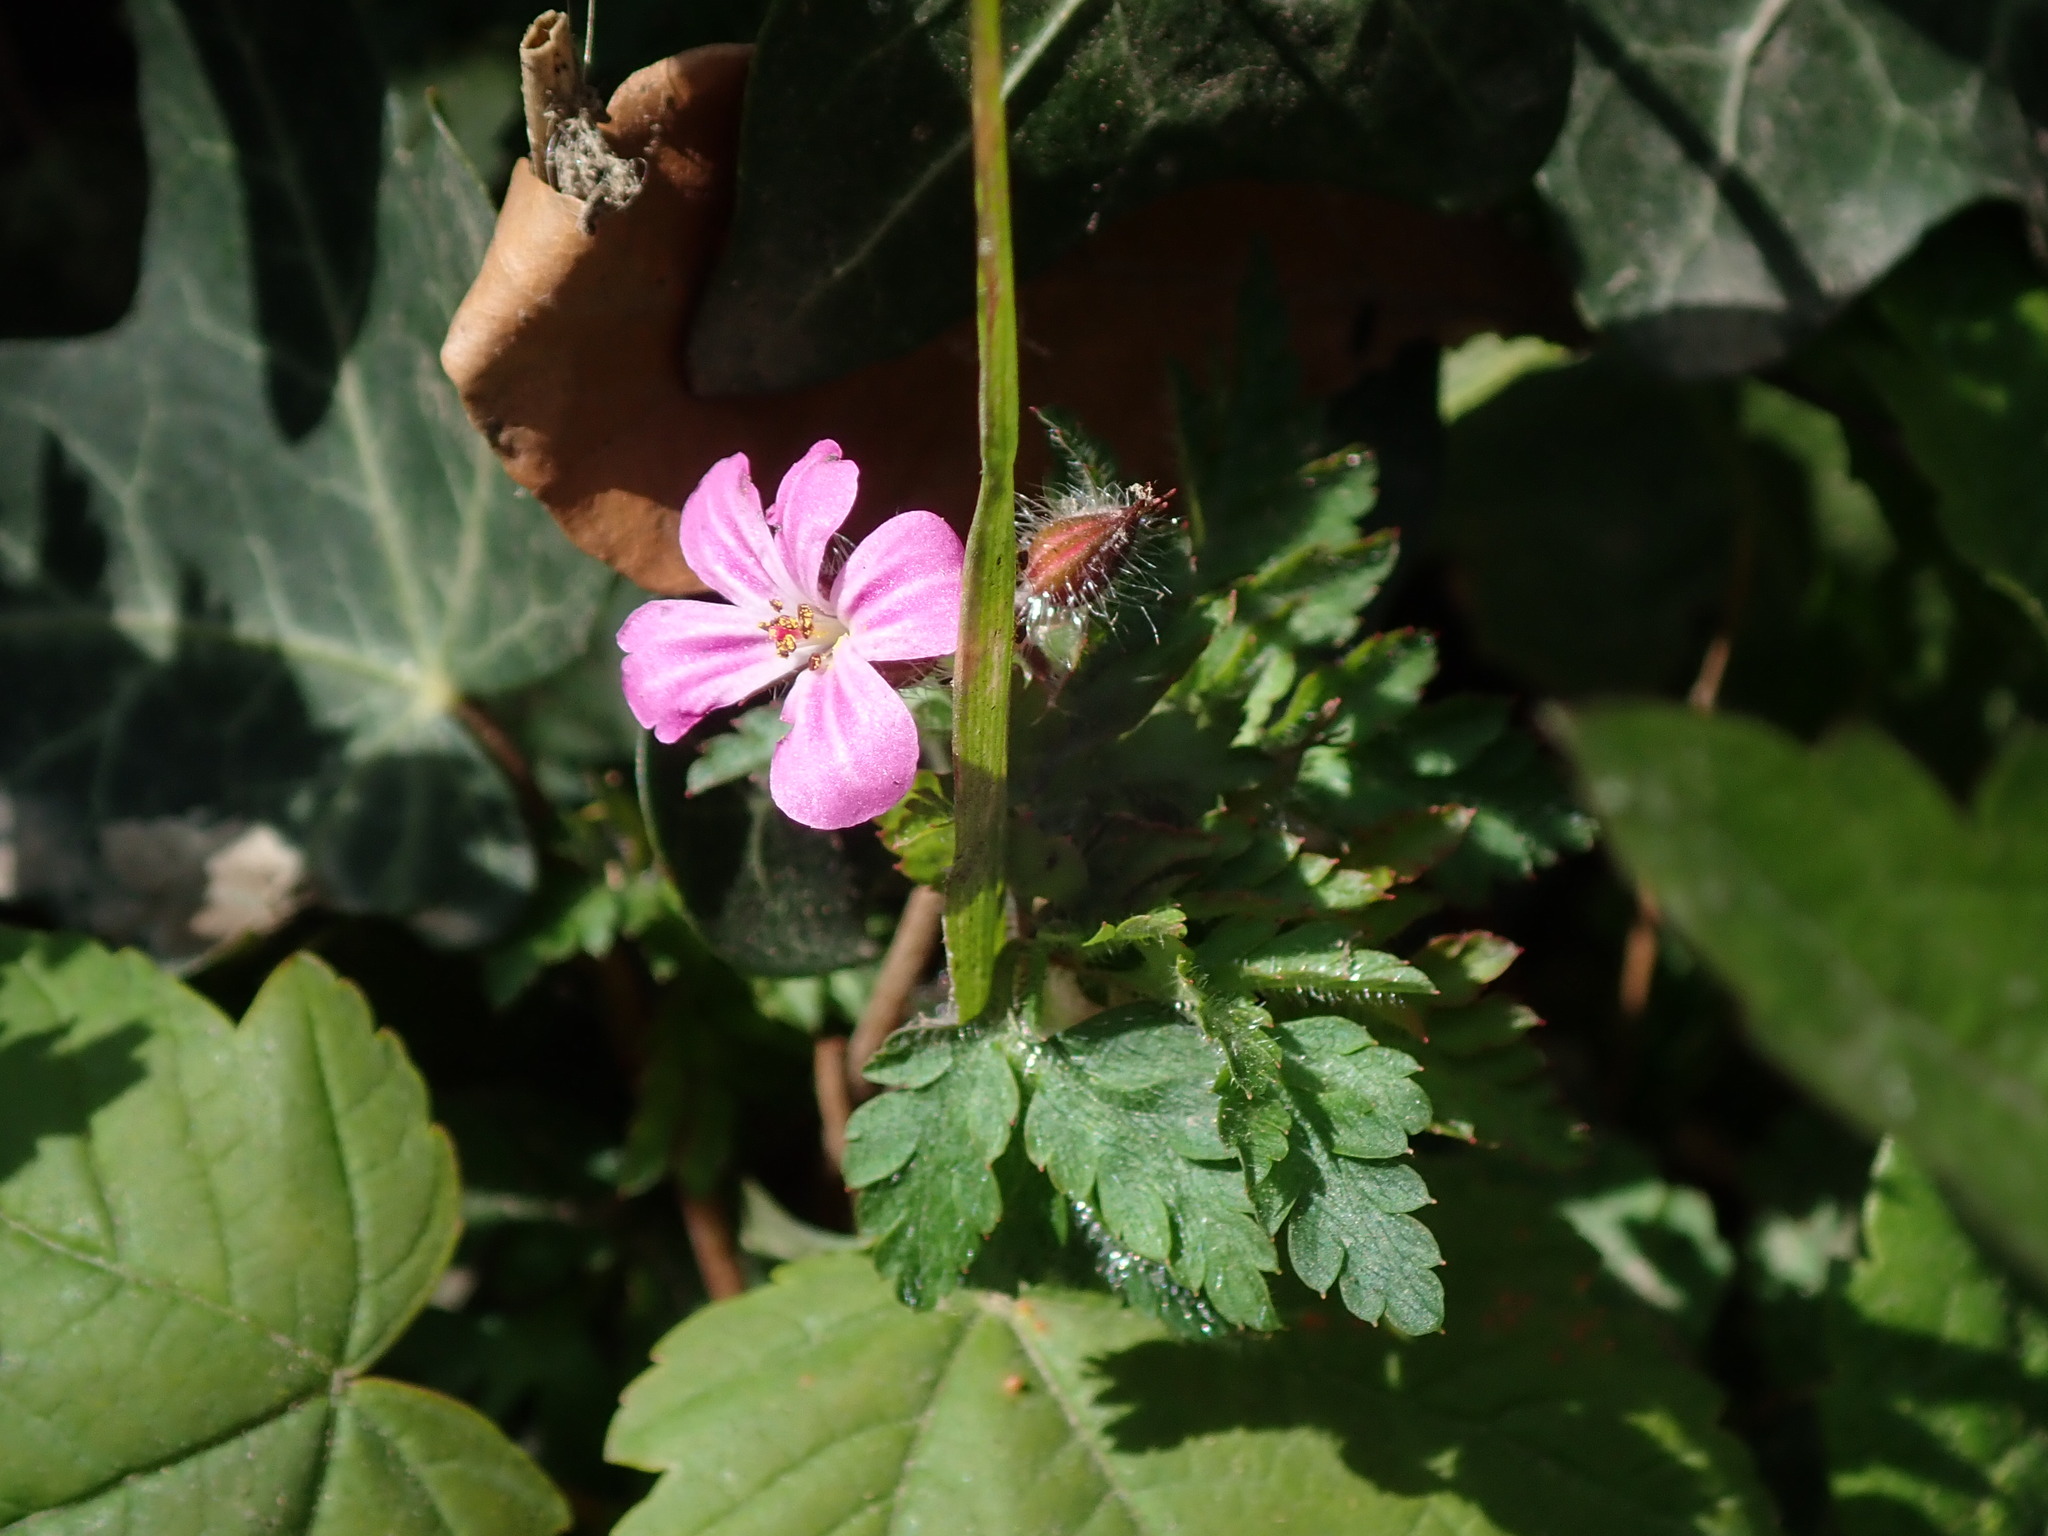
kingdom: Plantae
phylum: Tracheophyta
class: Magnoliopsida
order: Geraniales
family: Geraniaceae
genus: Geranium
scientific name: Geranium robertianum
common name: Herb-robert
